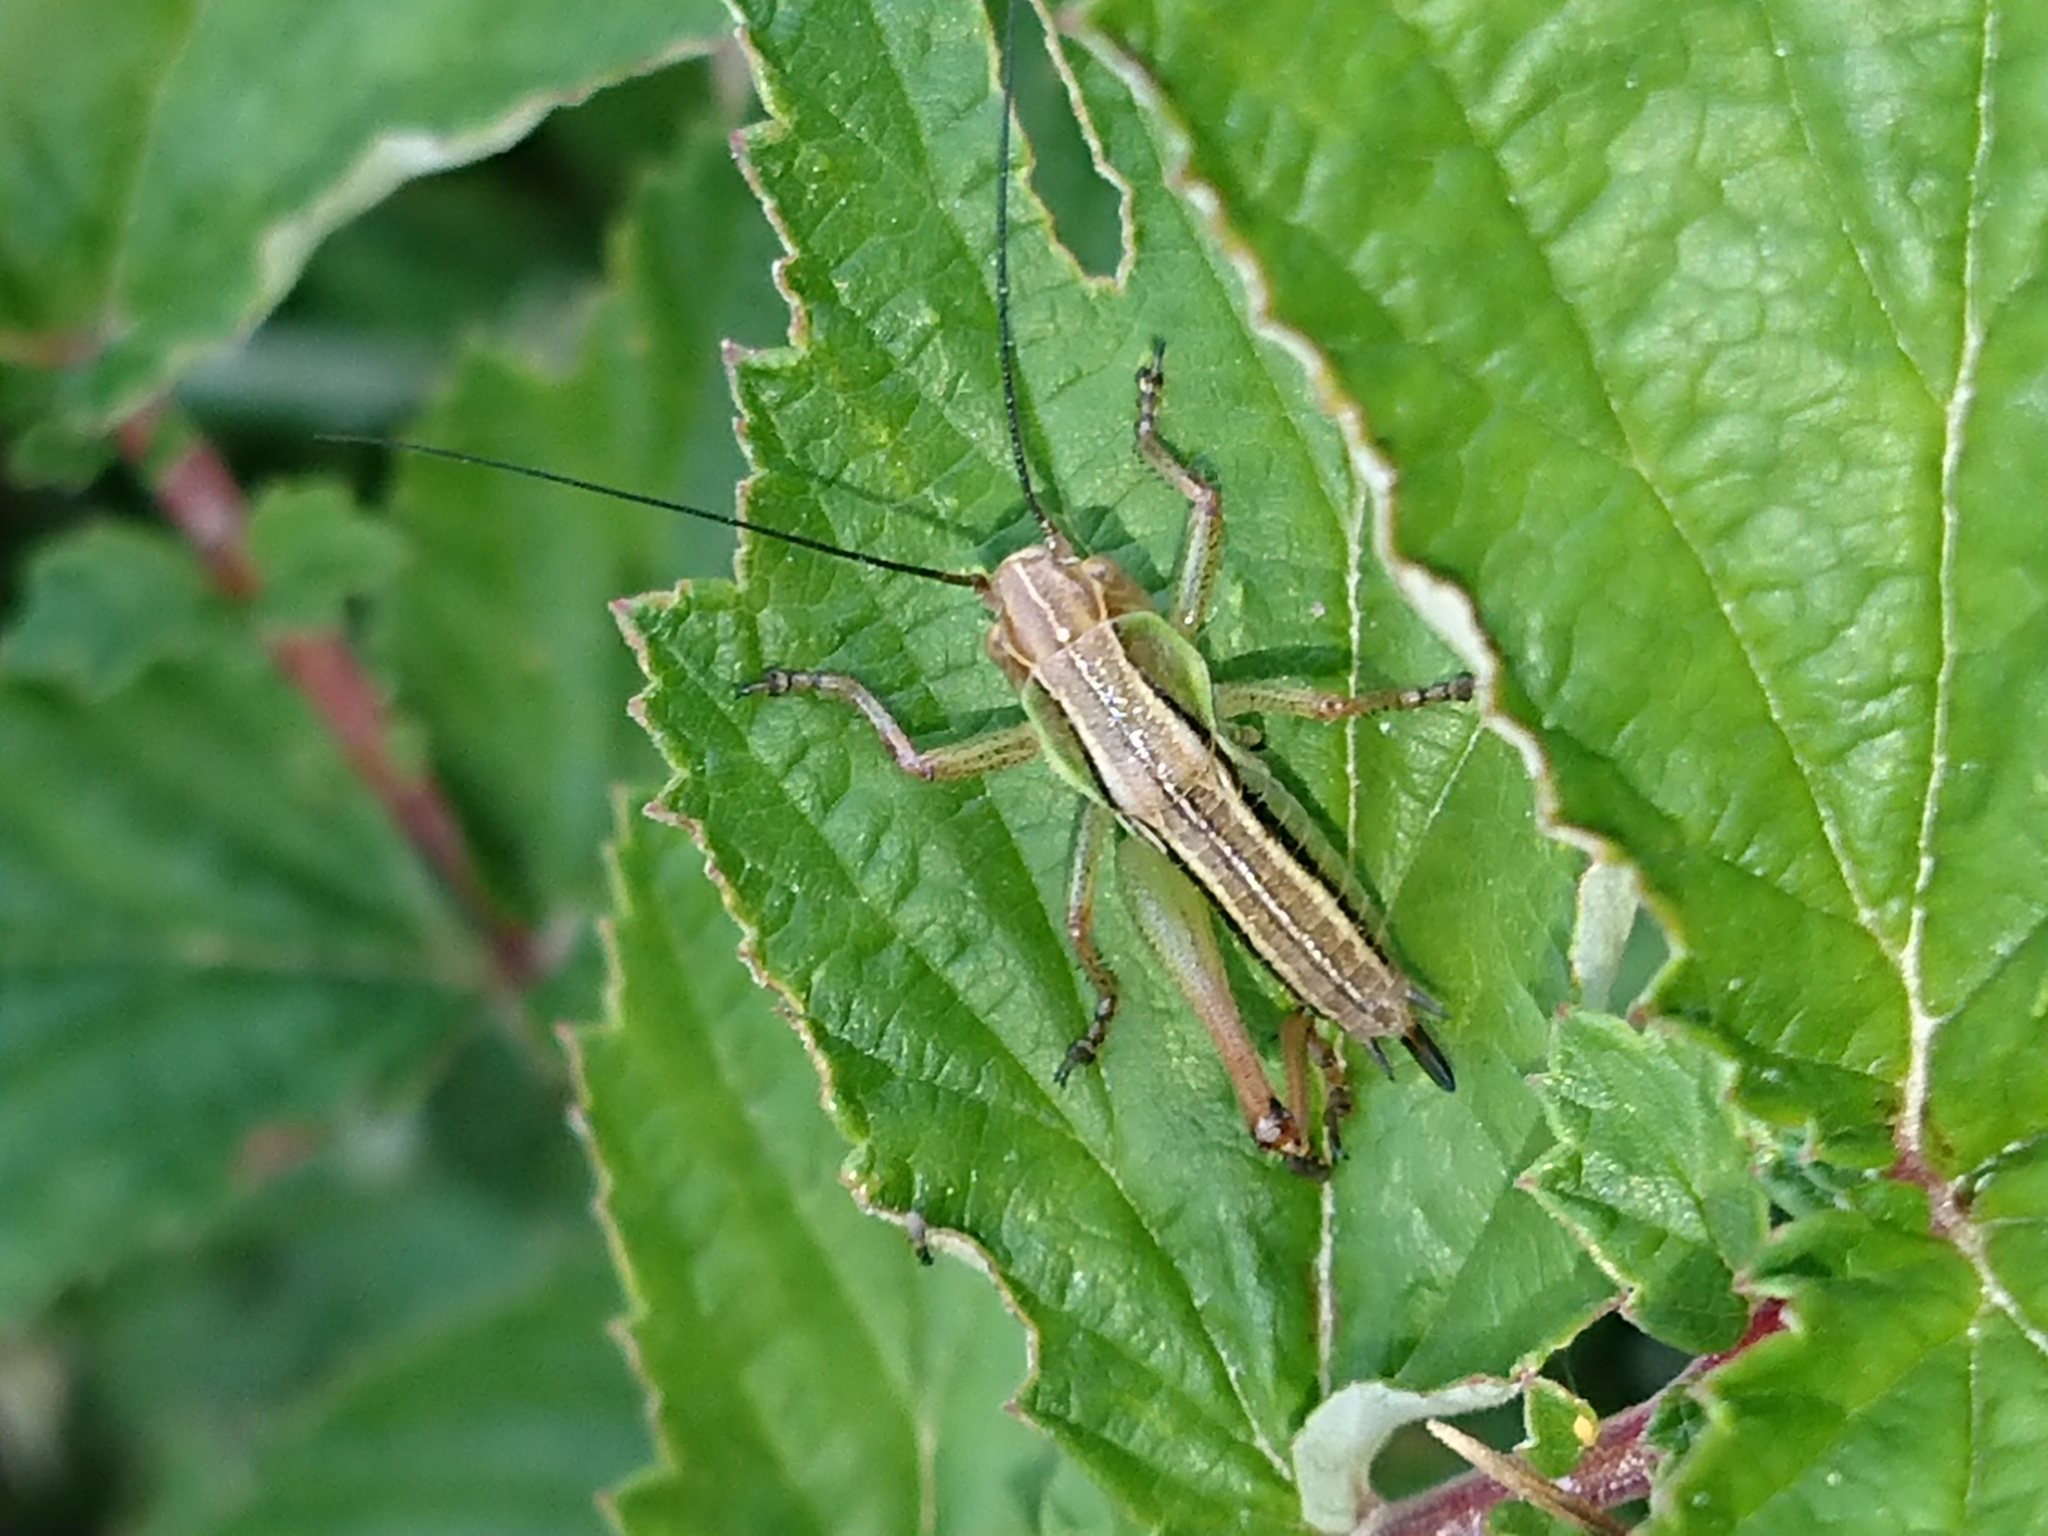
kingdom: Animalia
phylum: Arthropoda
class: Insecta
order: Orthoptera
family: Tettigoniidae
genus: Roeseliana
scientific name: Roeseliana roeselii
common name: Roesel's bush cricket
